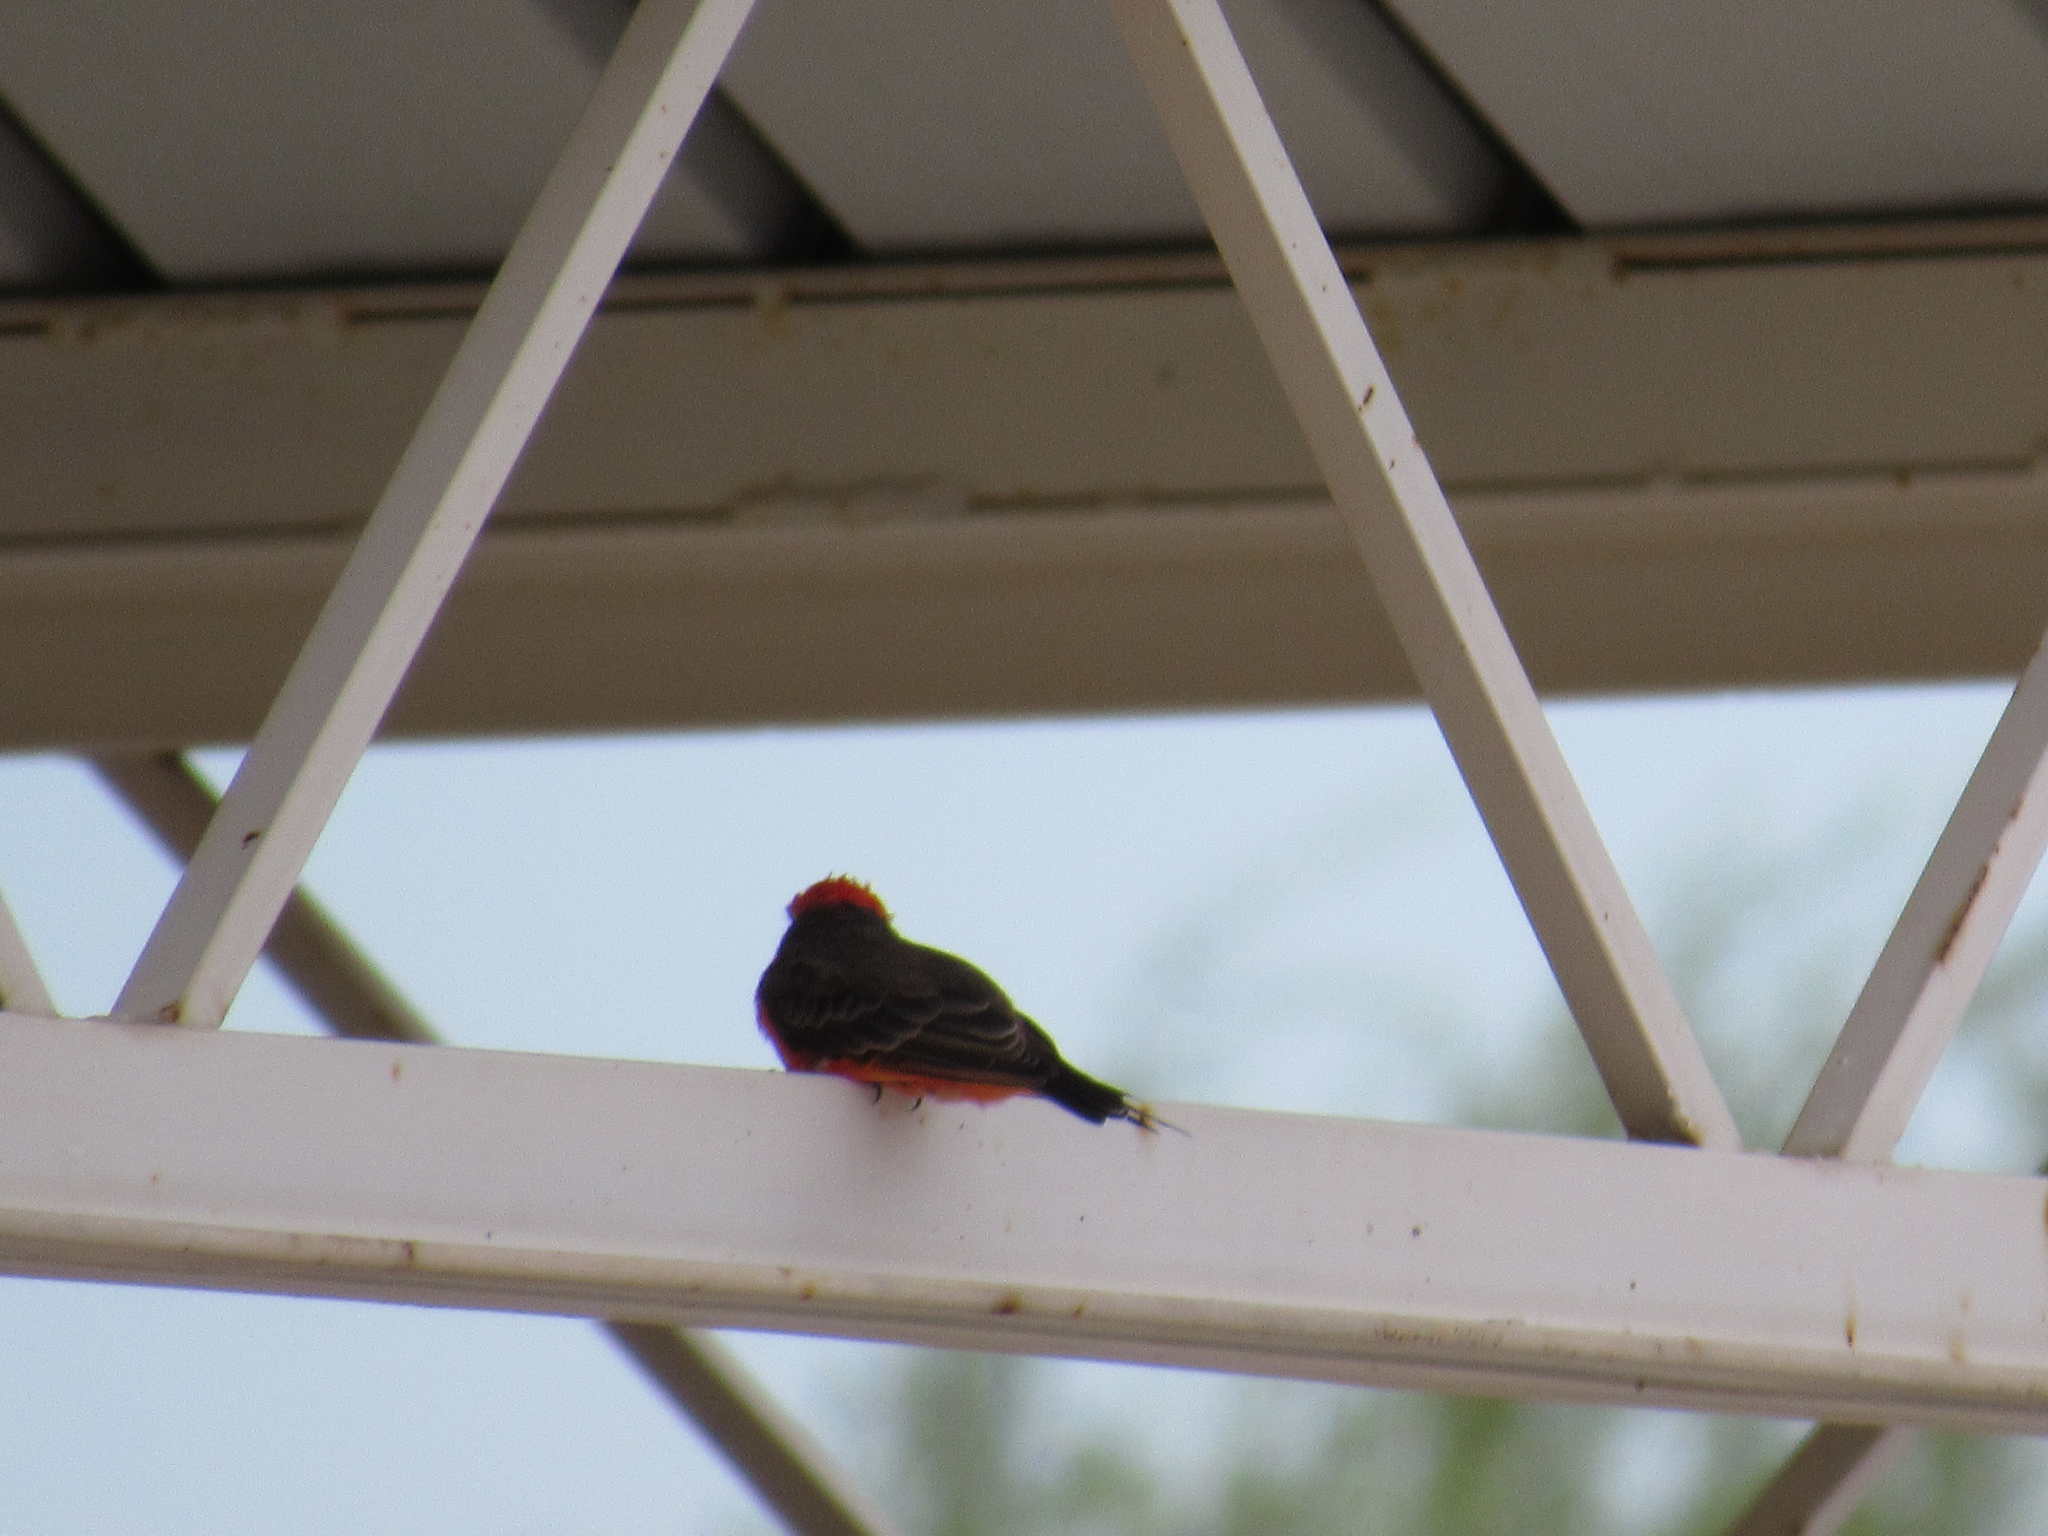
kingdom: Animalia
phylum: Chordata
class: Aves
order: Passeriformes
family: Tyrannidae
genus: Pyrocephalus
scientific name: Pyrocephalus rubinus
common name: Vermilion flycatcher
